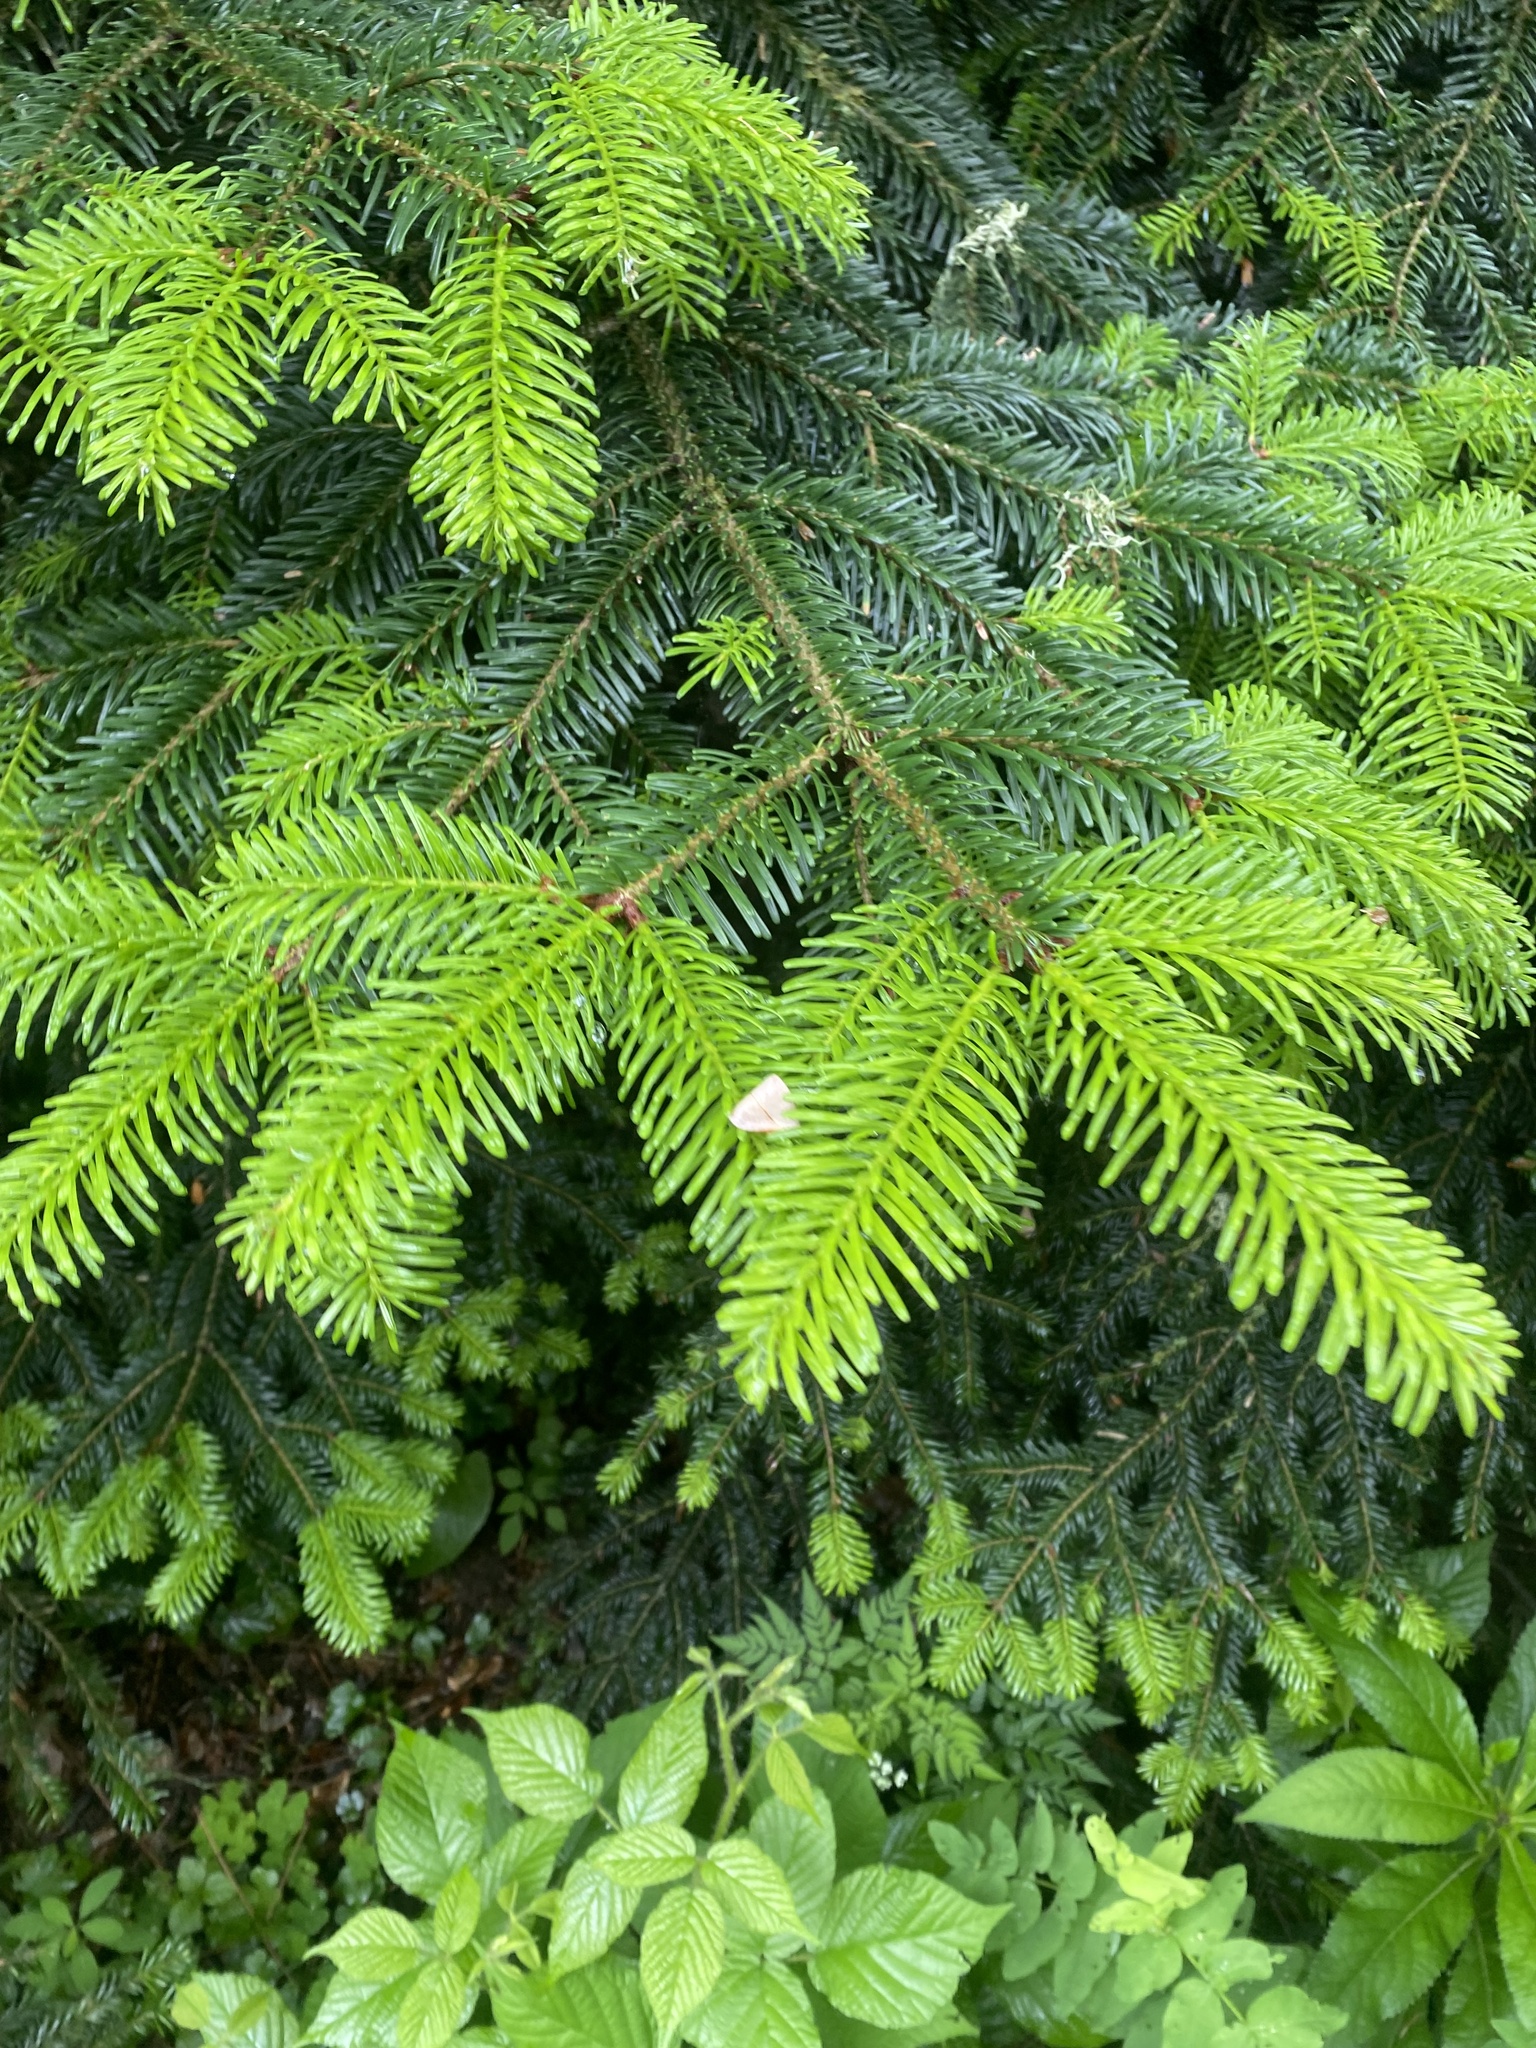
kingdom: Plantae
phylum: Tracheophyta
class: Pinopsida
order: Pinales
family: Pinaceae
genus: Abies
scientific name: Abies nordmanniana
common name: Caucasian fir
